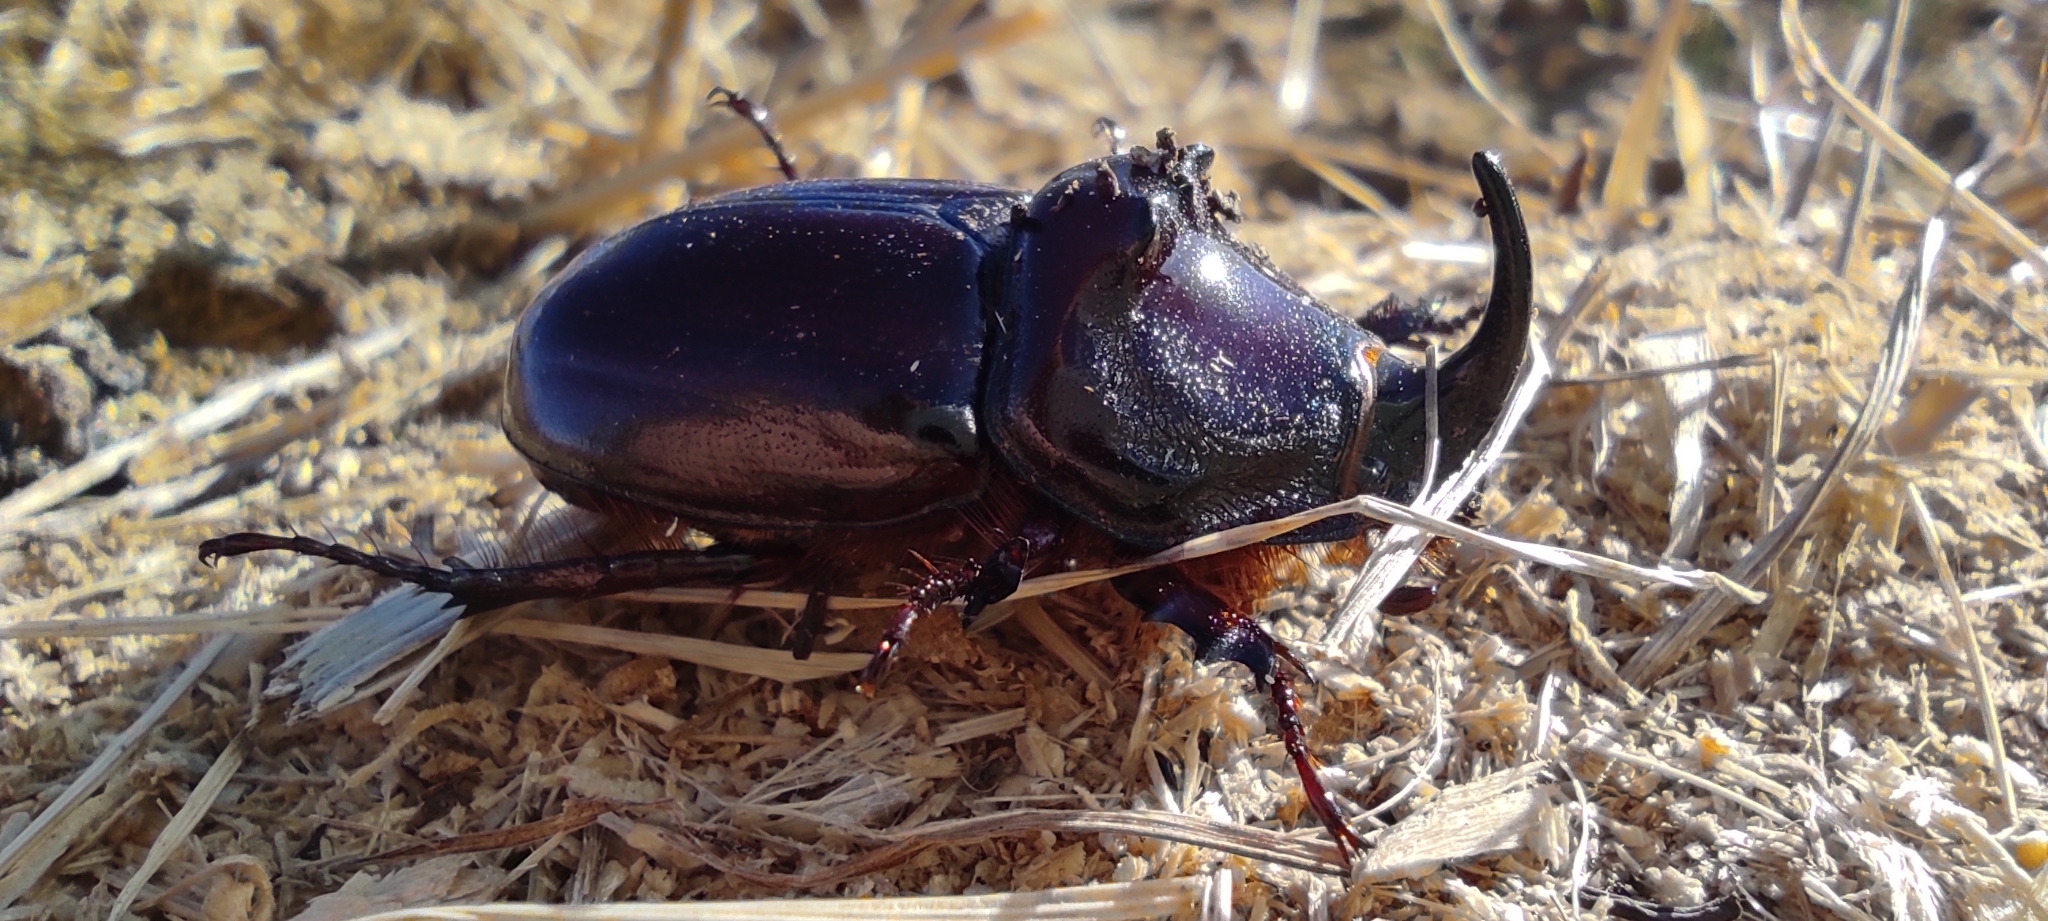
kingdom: Animalia
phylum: Arthropoda
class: Insecta
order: Coleoptera
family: Scarabaeidae
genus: Oryctes
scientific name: Oryctes nasicornis
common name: European rhinoceros beetle
